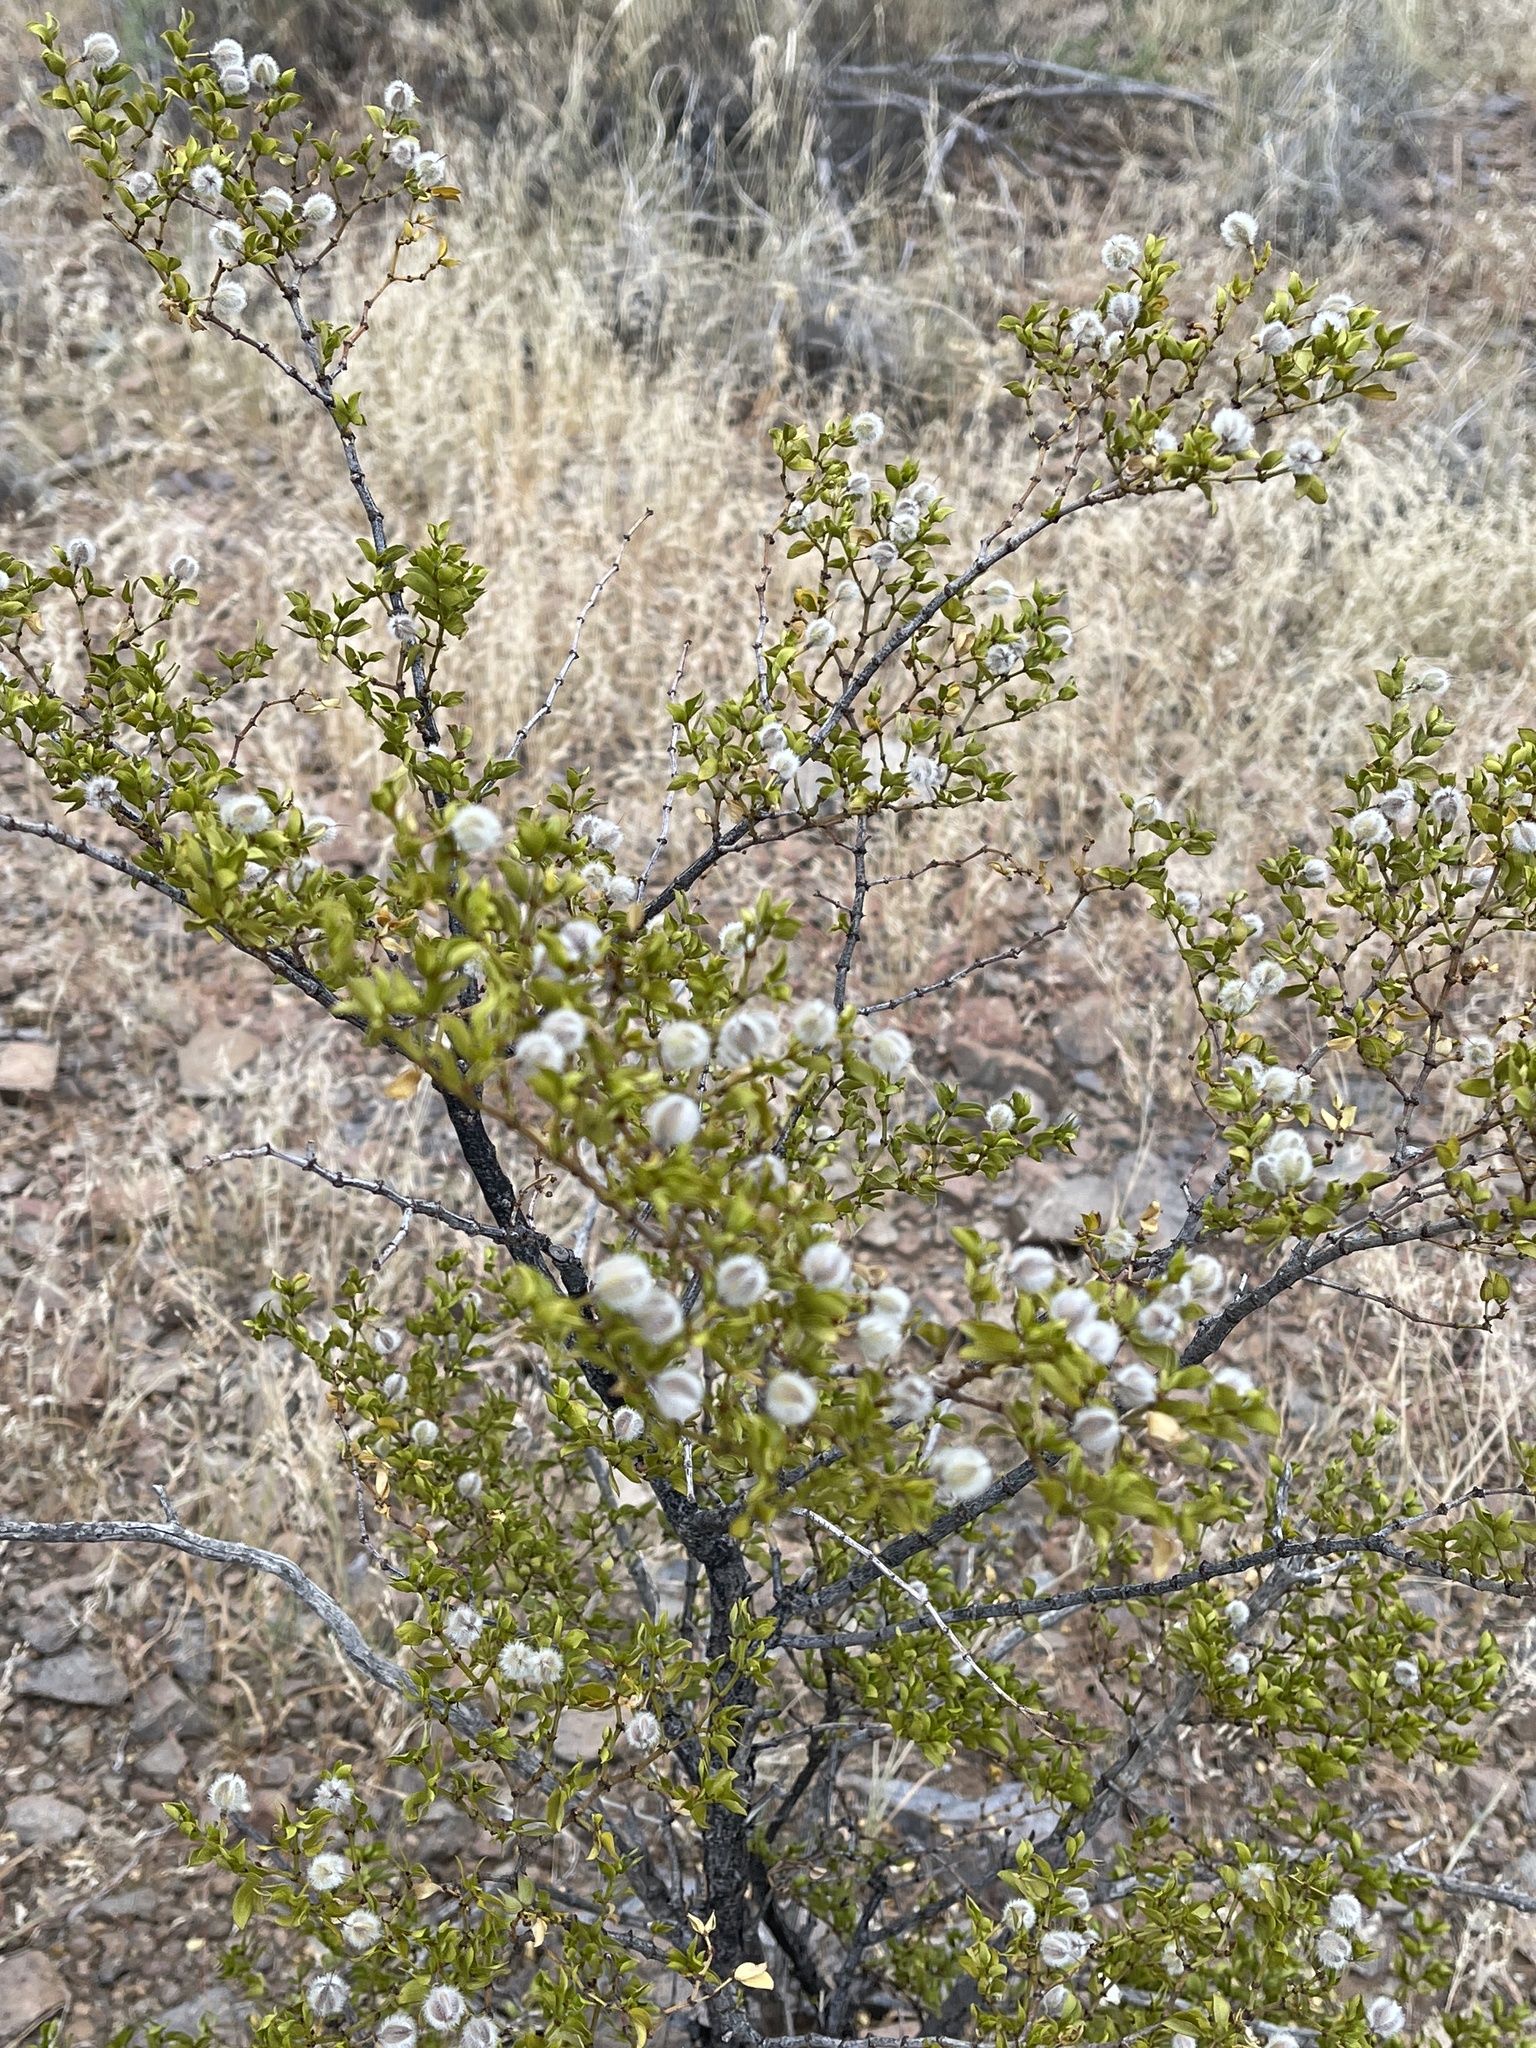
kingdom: Plantae
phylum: Tracheophyta
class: Magnoliopsida
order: Zygophyllales
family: Zygophyllaceae
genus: Larrea
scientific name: Larrea tridentata
